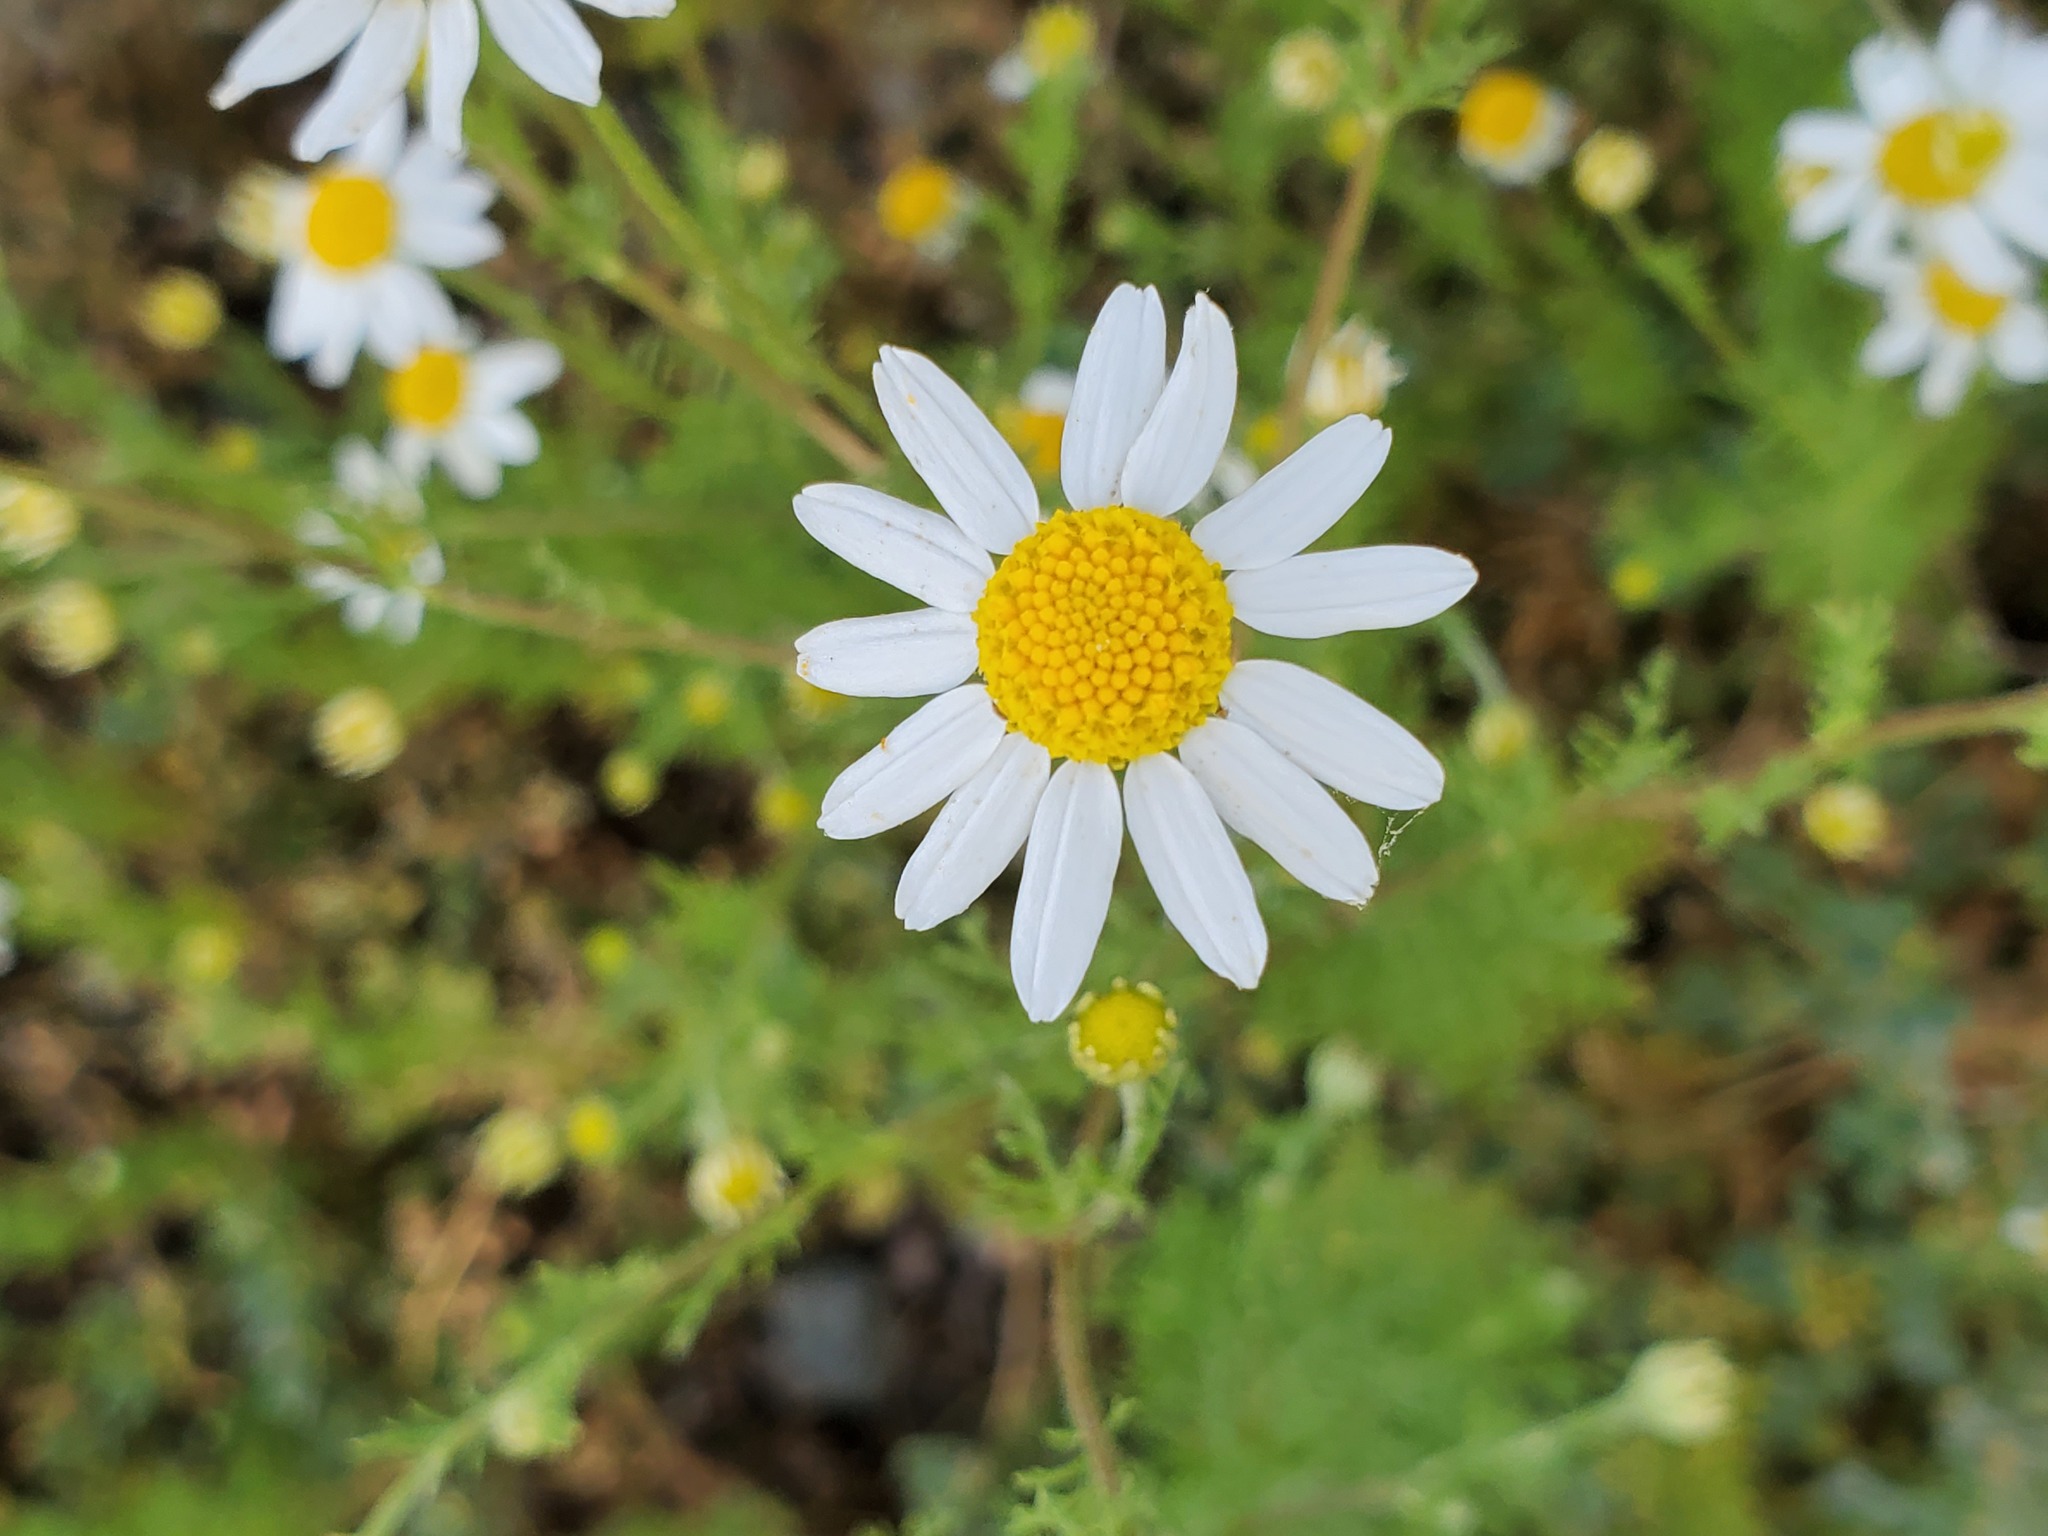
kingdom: Plantae
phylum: Tracheophyta
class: Magnoliopsida
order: Asterales
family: Asteraceae
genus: Anthemis
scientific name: Anthemis cotula
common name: Stinking chamomile
